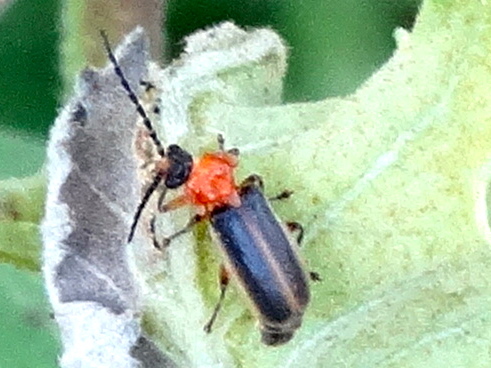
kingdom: Animalia
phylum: Arthropoda
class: Insecta
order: Coleoptera
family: Cantharidae
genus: Silis
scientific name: Silis
